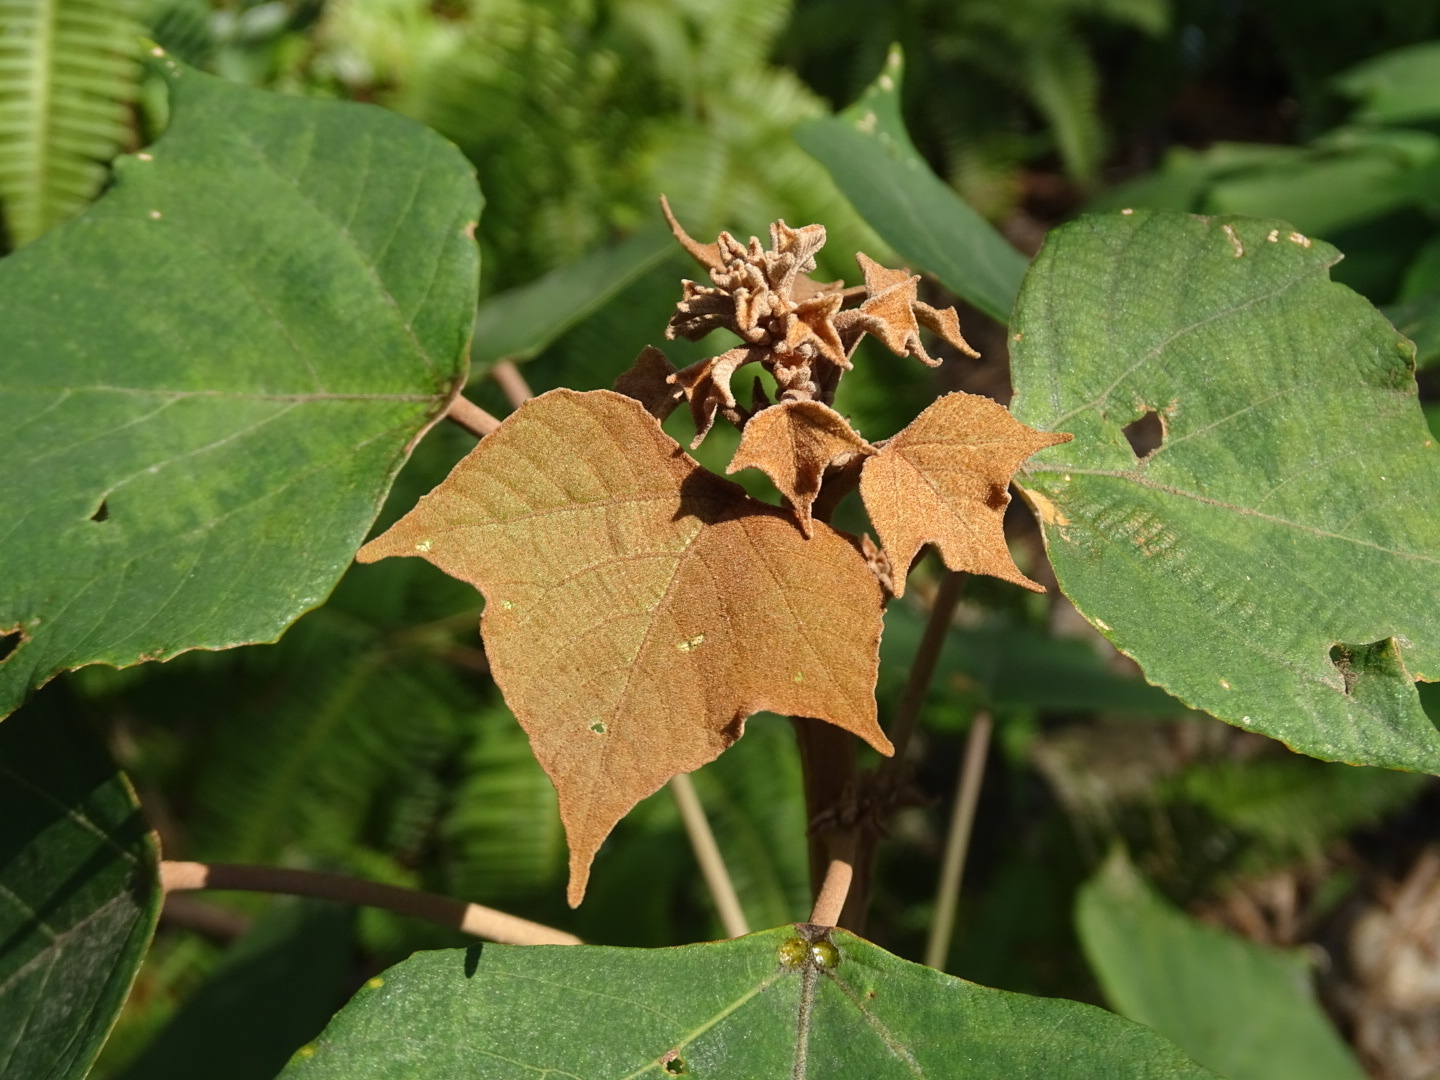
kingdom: Plantae
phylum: Tracheophyta
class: Magnoliopsida
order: Malpighiales
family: Euphorbiaceae
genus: Mallotus
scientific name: Mallotus paniculatus
